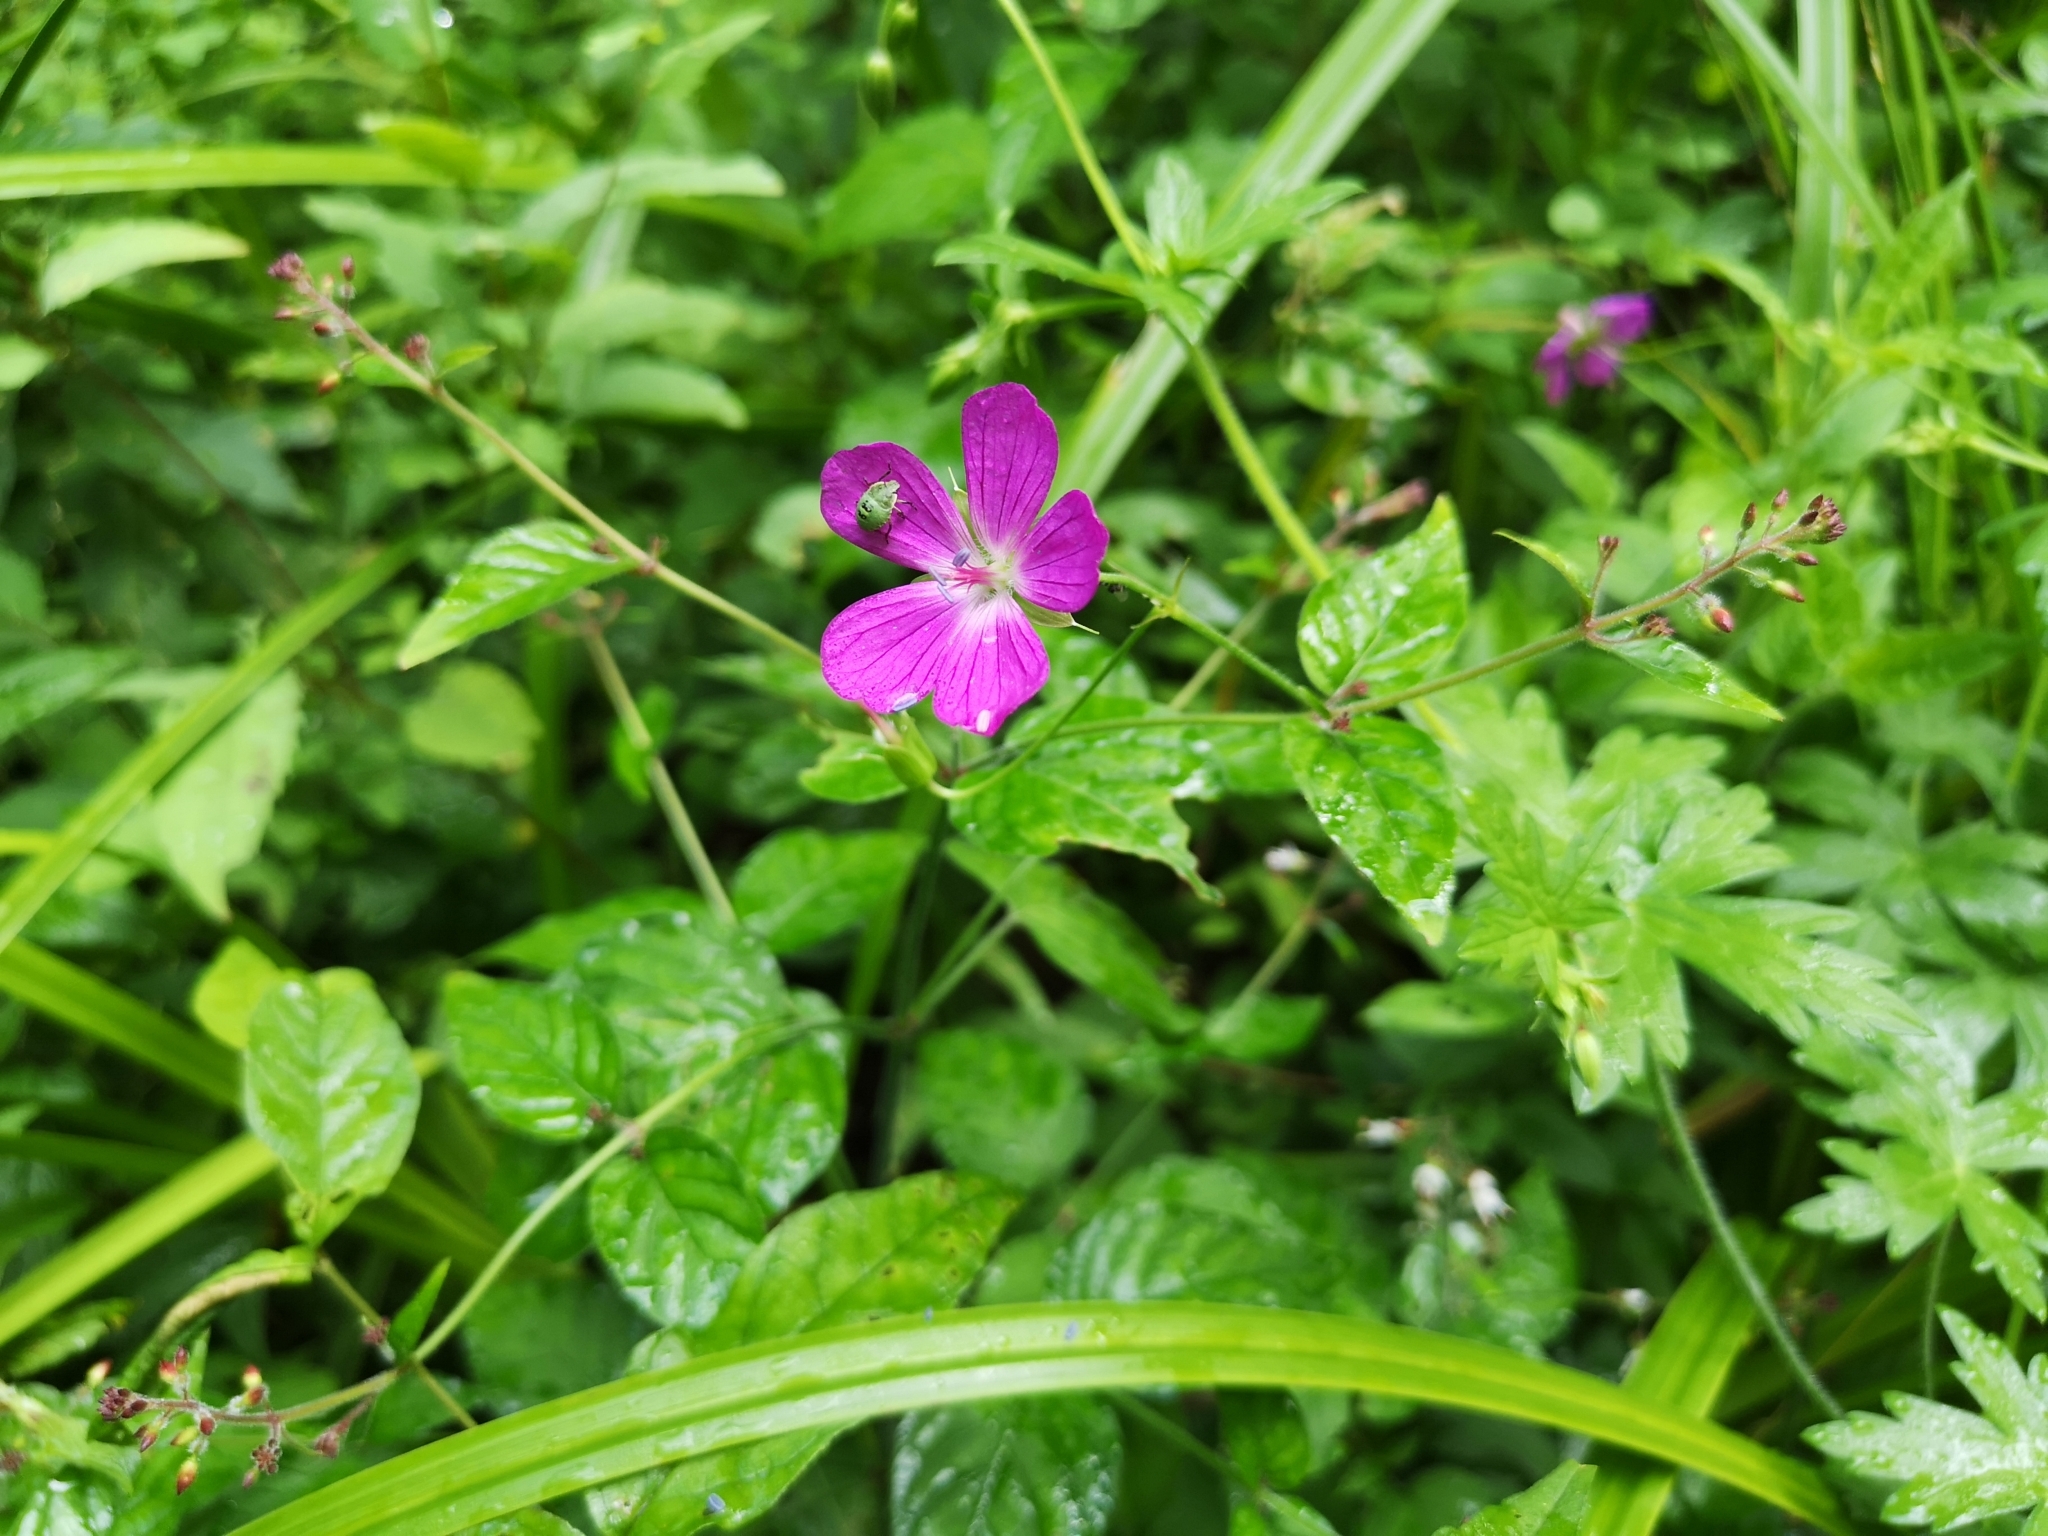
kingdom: Plantae
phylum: Tracheophyta
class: Magnoliopsida
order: Geraniales
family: Geraniaceae
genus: Geranium
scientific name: Geranium palustre
